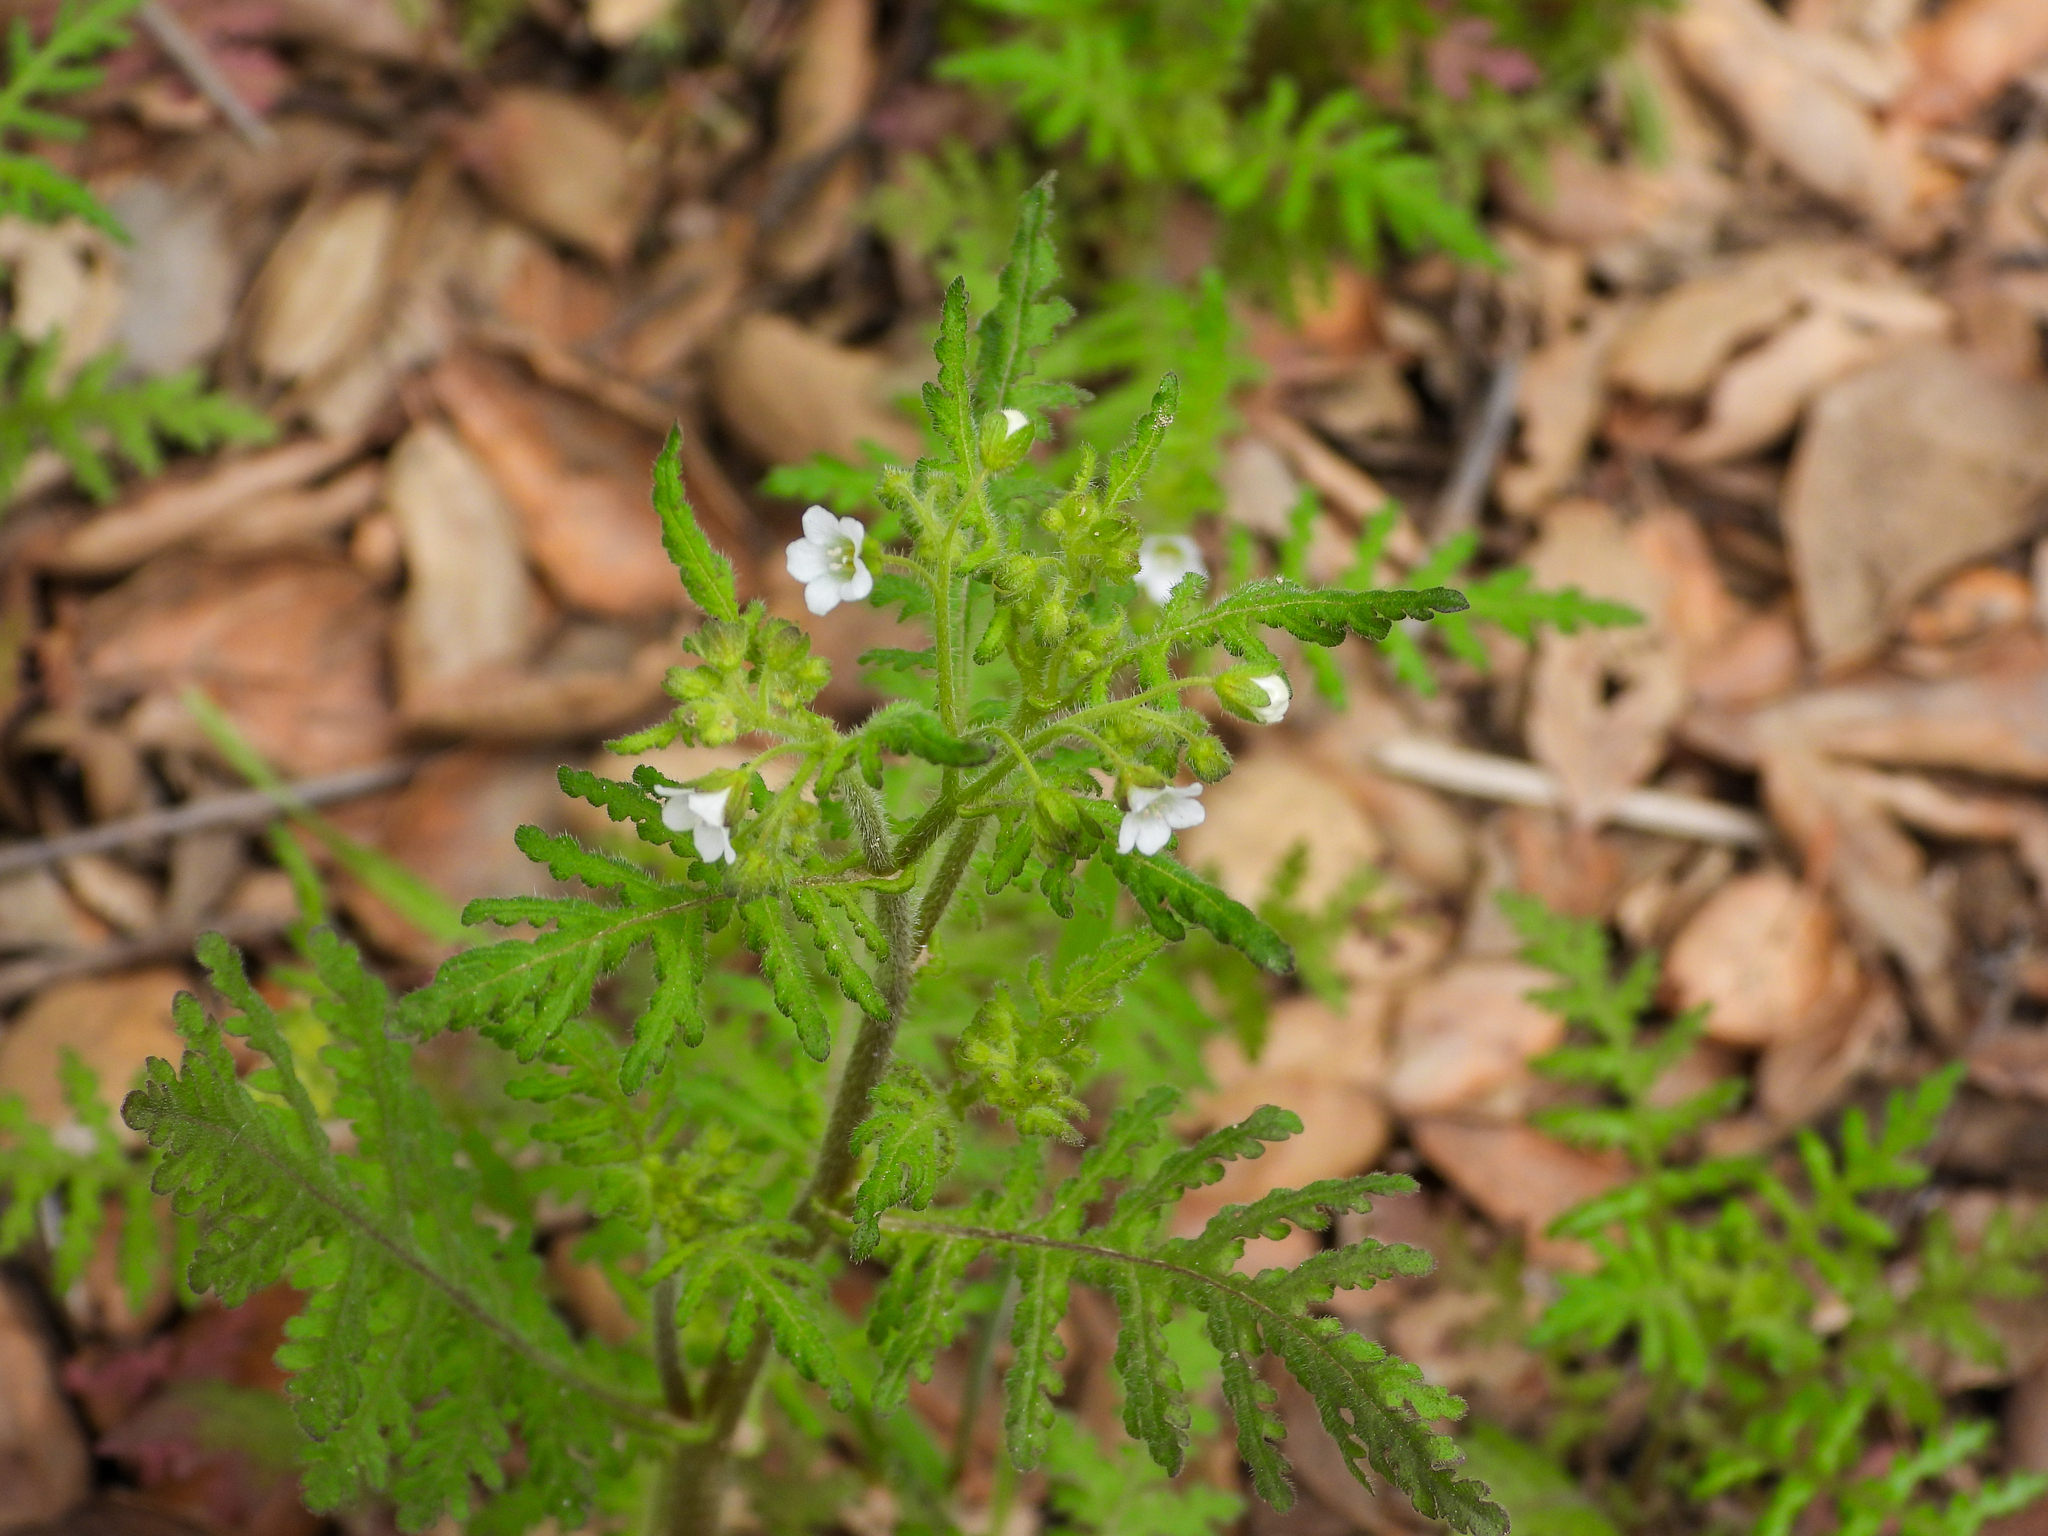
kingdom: Plantae
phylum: Tracheophyta
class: Magnoliopsida
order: Boraginales
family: Hydrophyllaceae
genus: Eucrypta
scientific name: Eucrypta chrysanthemifolia
